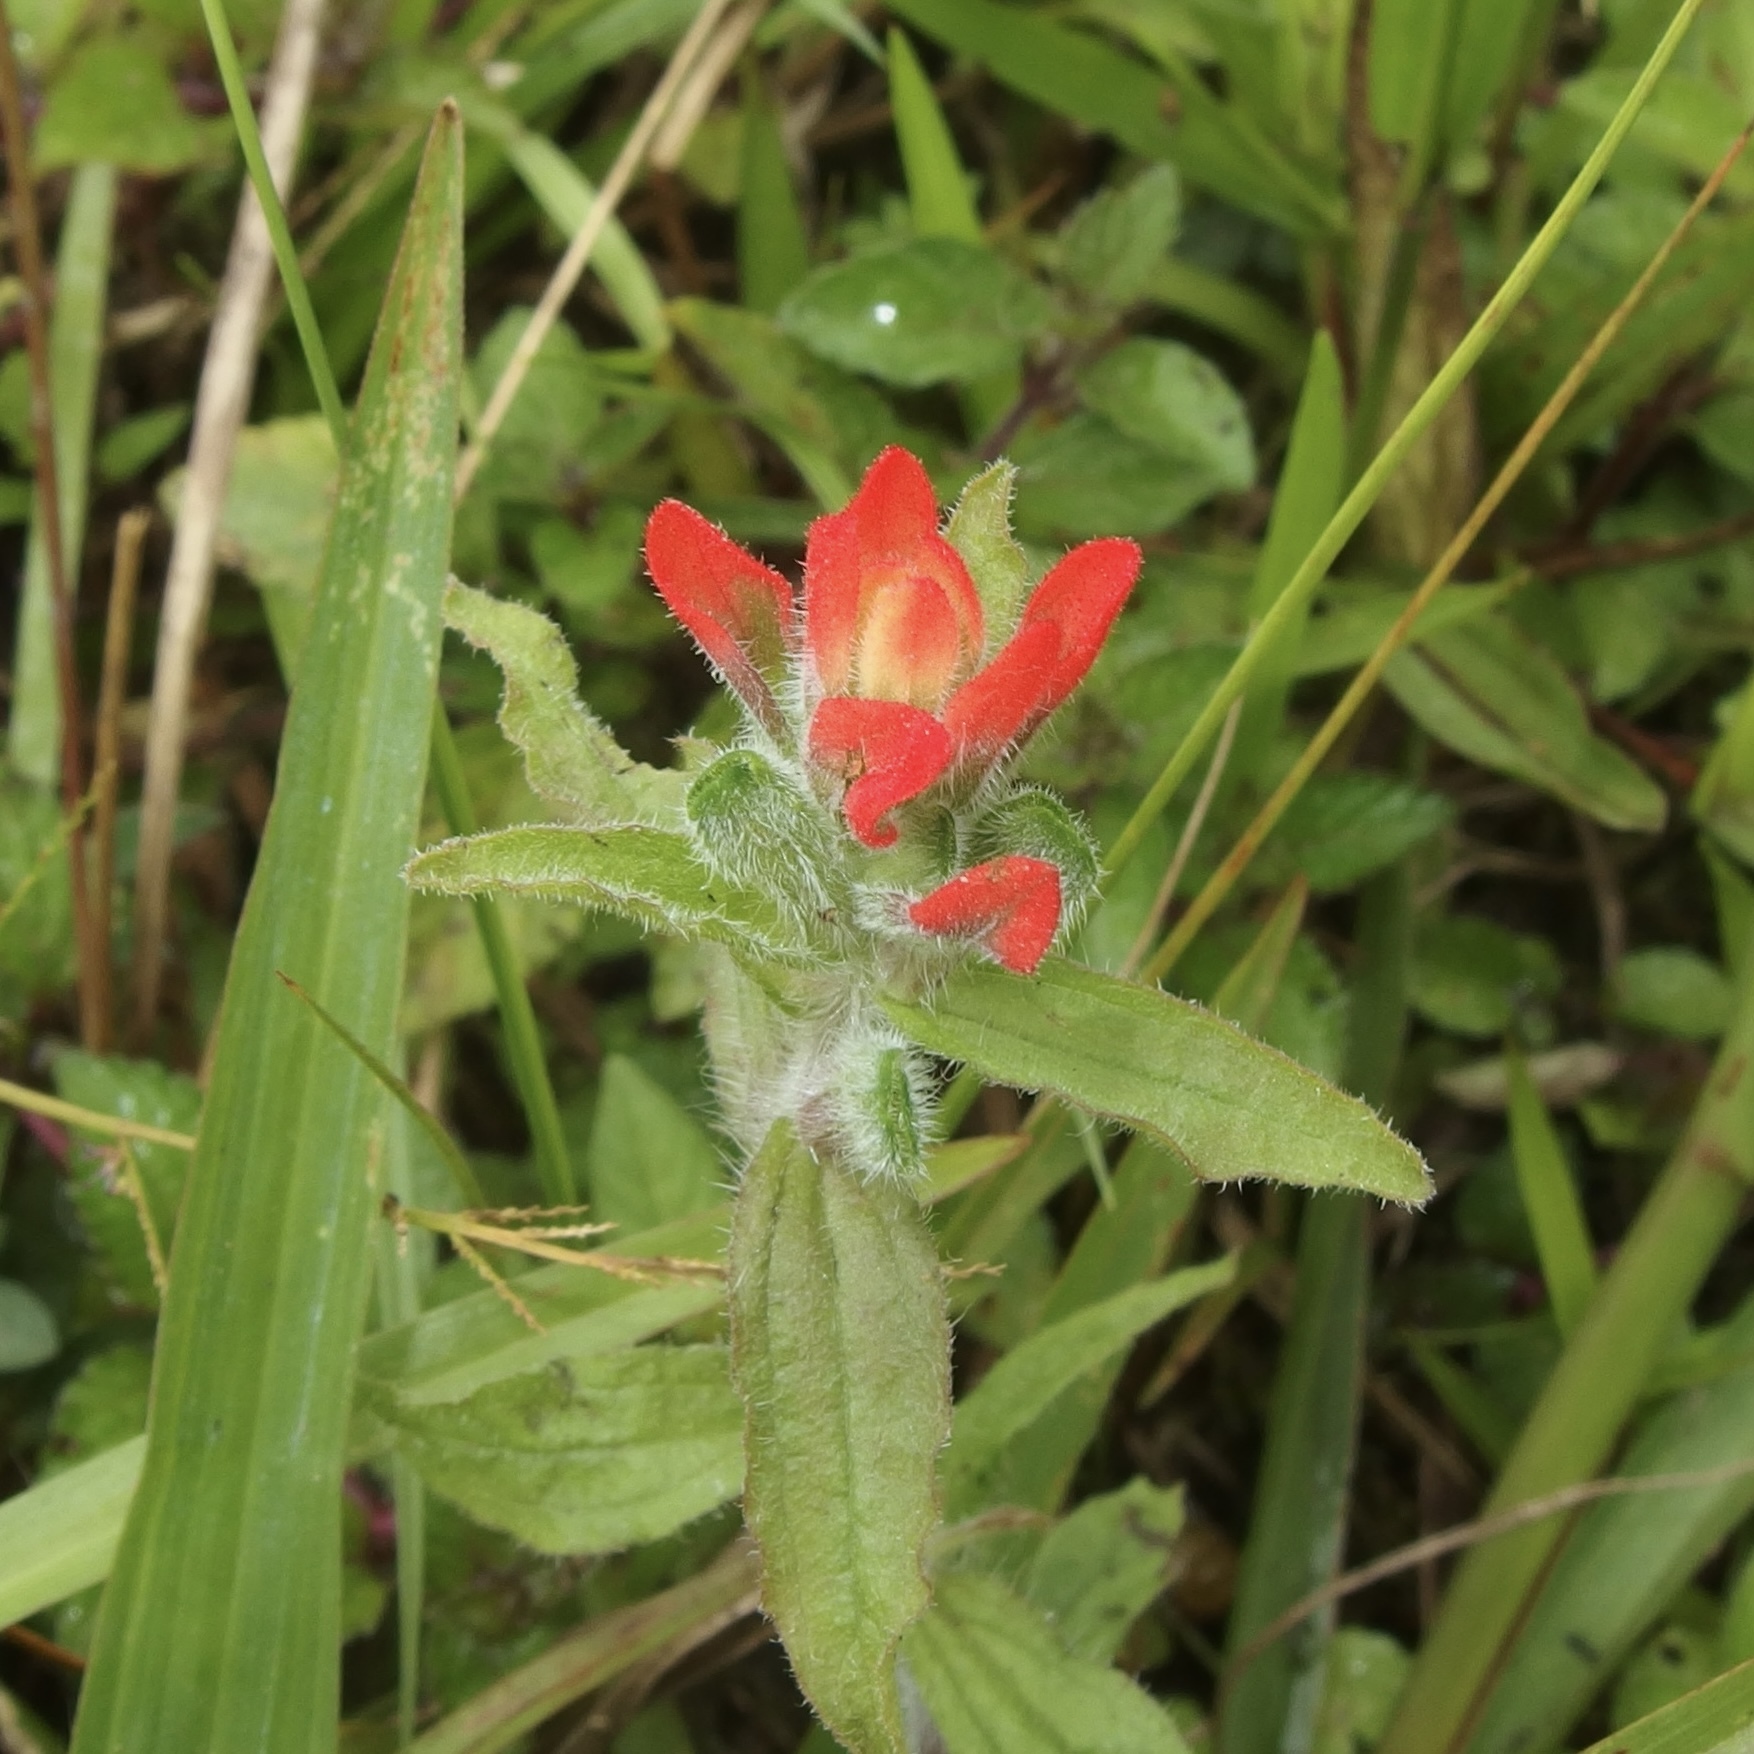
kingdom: Plantae
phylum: Tracheophyta
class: Magnoliopsida
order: Lamiales
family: Orobanchaceae
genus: Castilleja
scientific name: Castilleja arvensis
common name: Indian paintbrush
